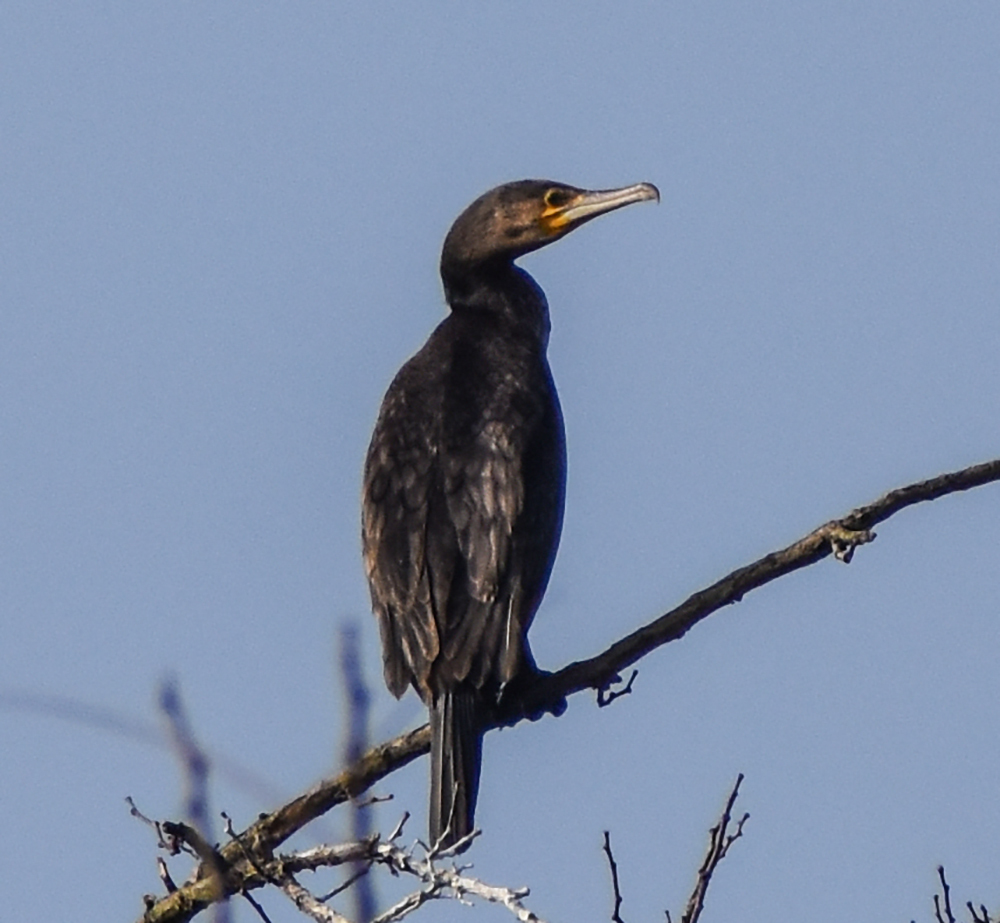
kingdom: Animalia
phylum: Chordata
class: Aves
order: Suliformes
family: Phalacrocoracidae
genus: Phalacrocorax
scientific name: Phalacrocorax carbo
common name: Great cormorant
